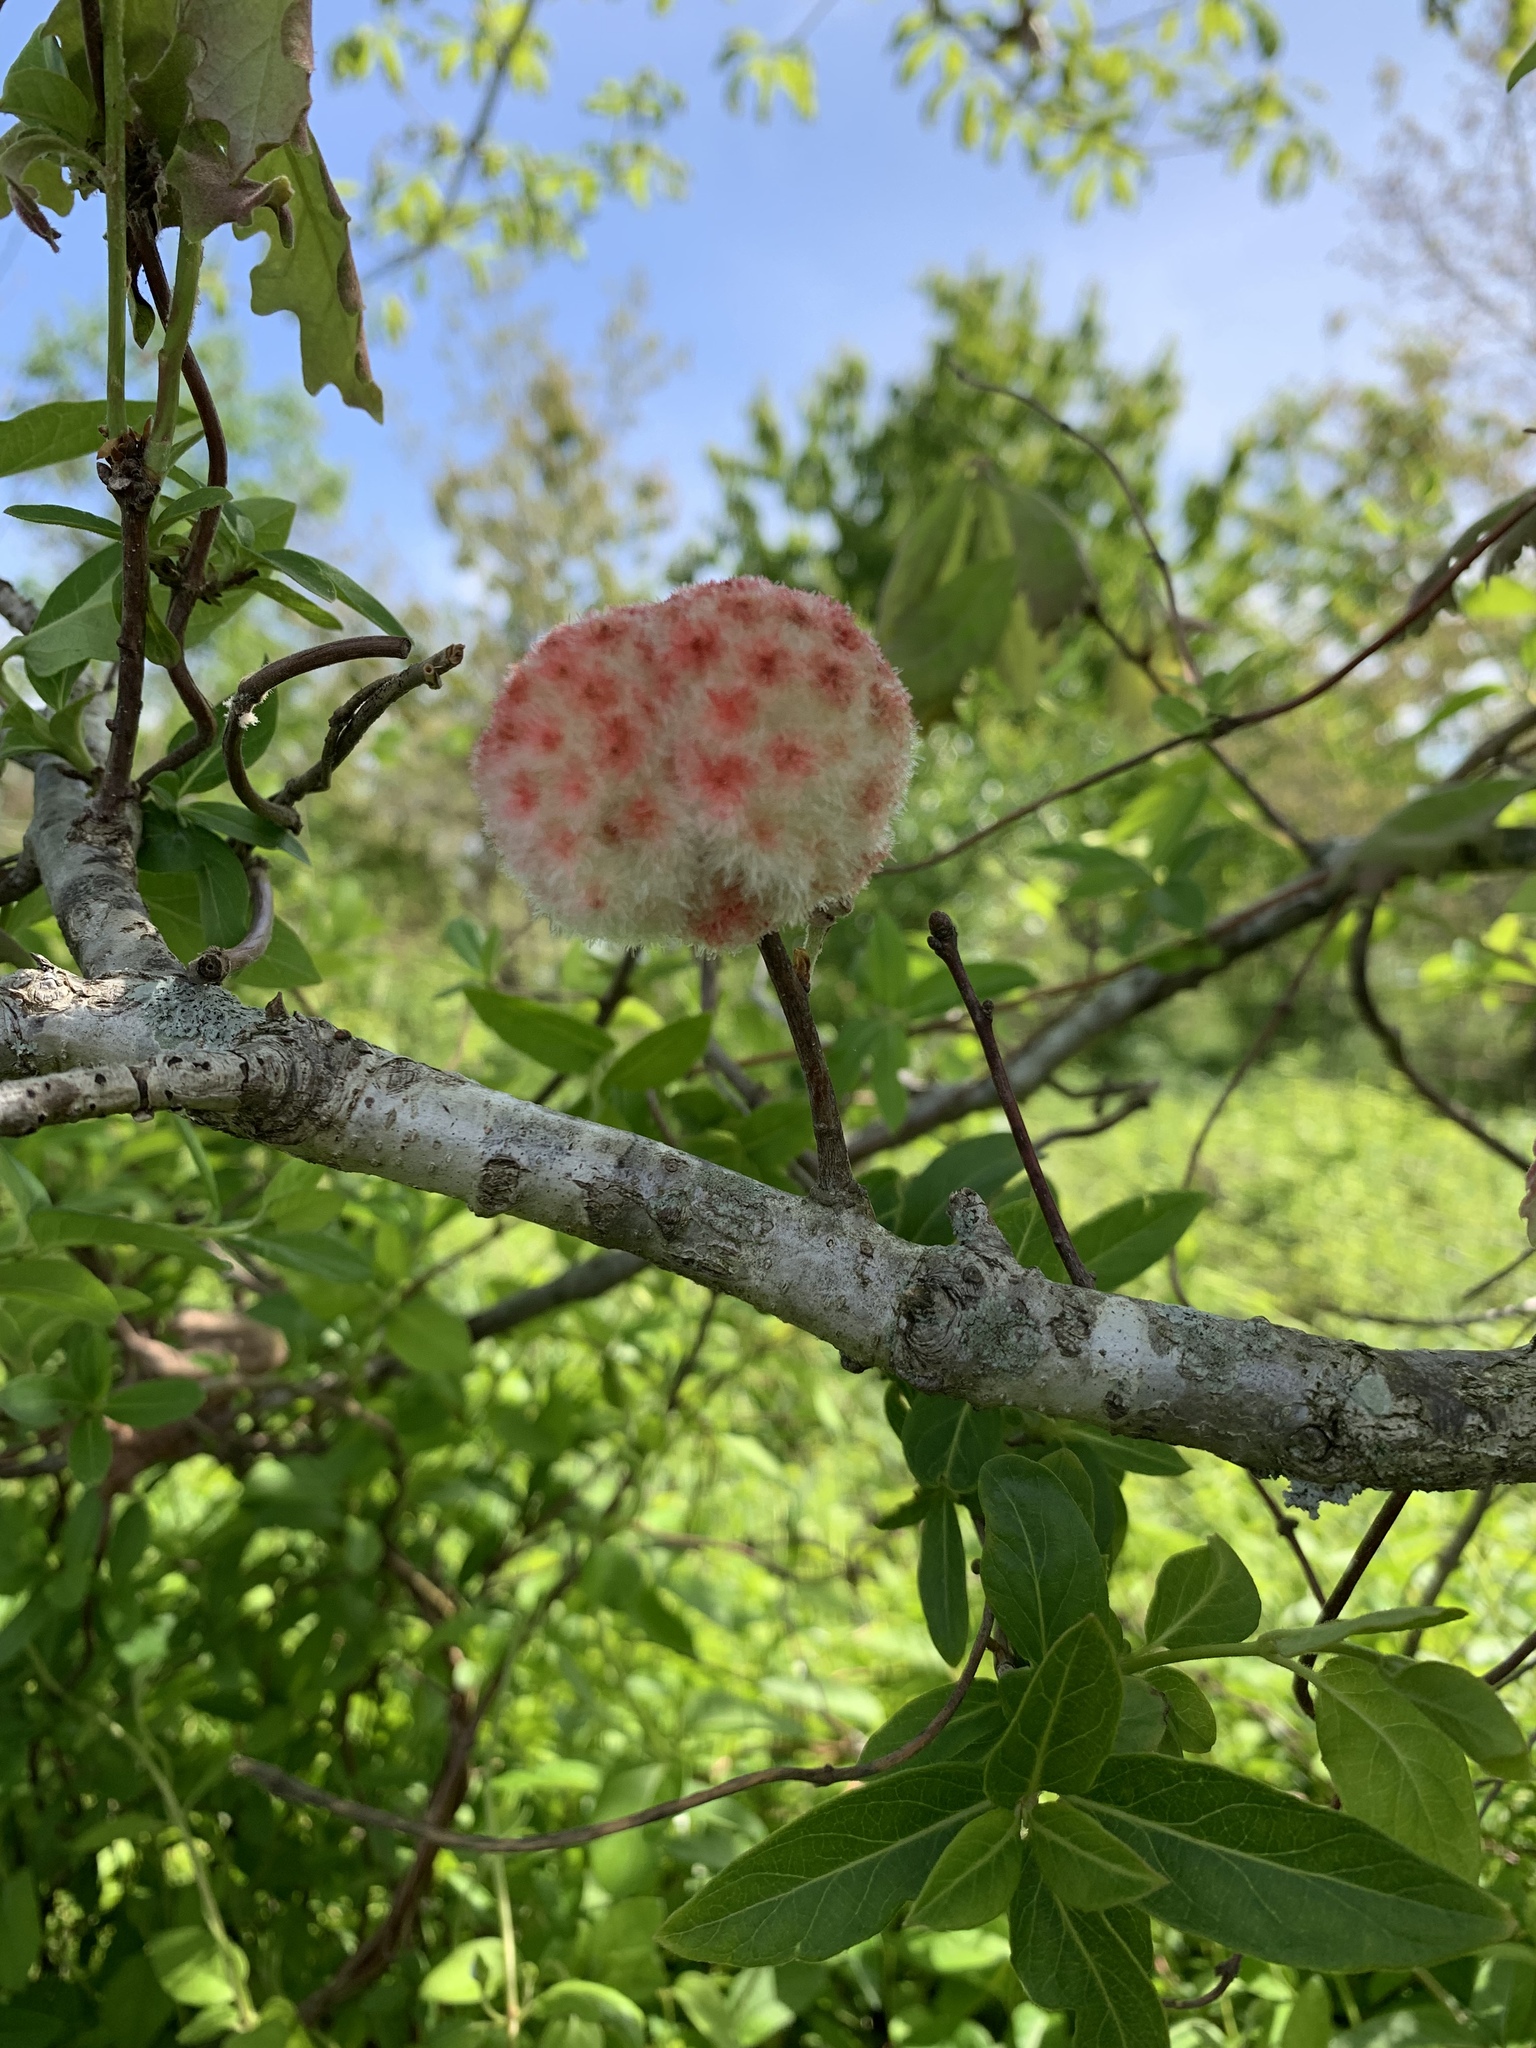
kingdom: Animalia
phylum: Arthropoda
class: Insecta
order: Hymenoptera
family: Cynipidae
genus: Callirhytis
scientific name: Callirhytis
